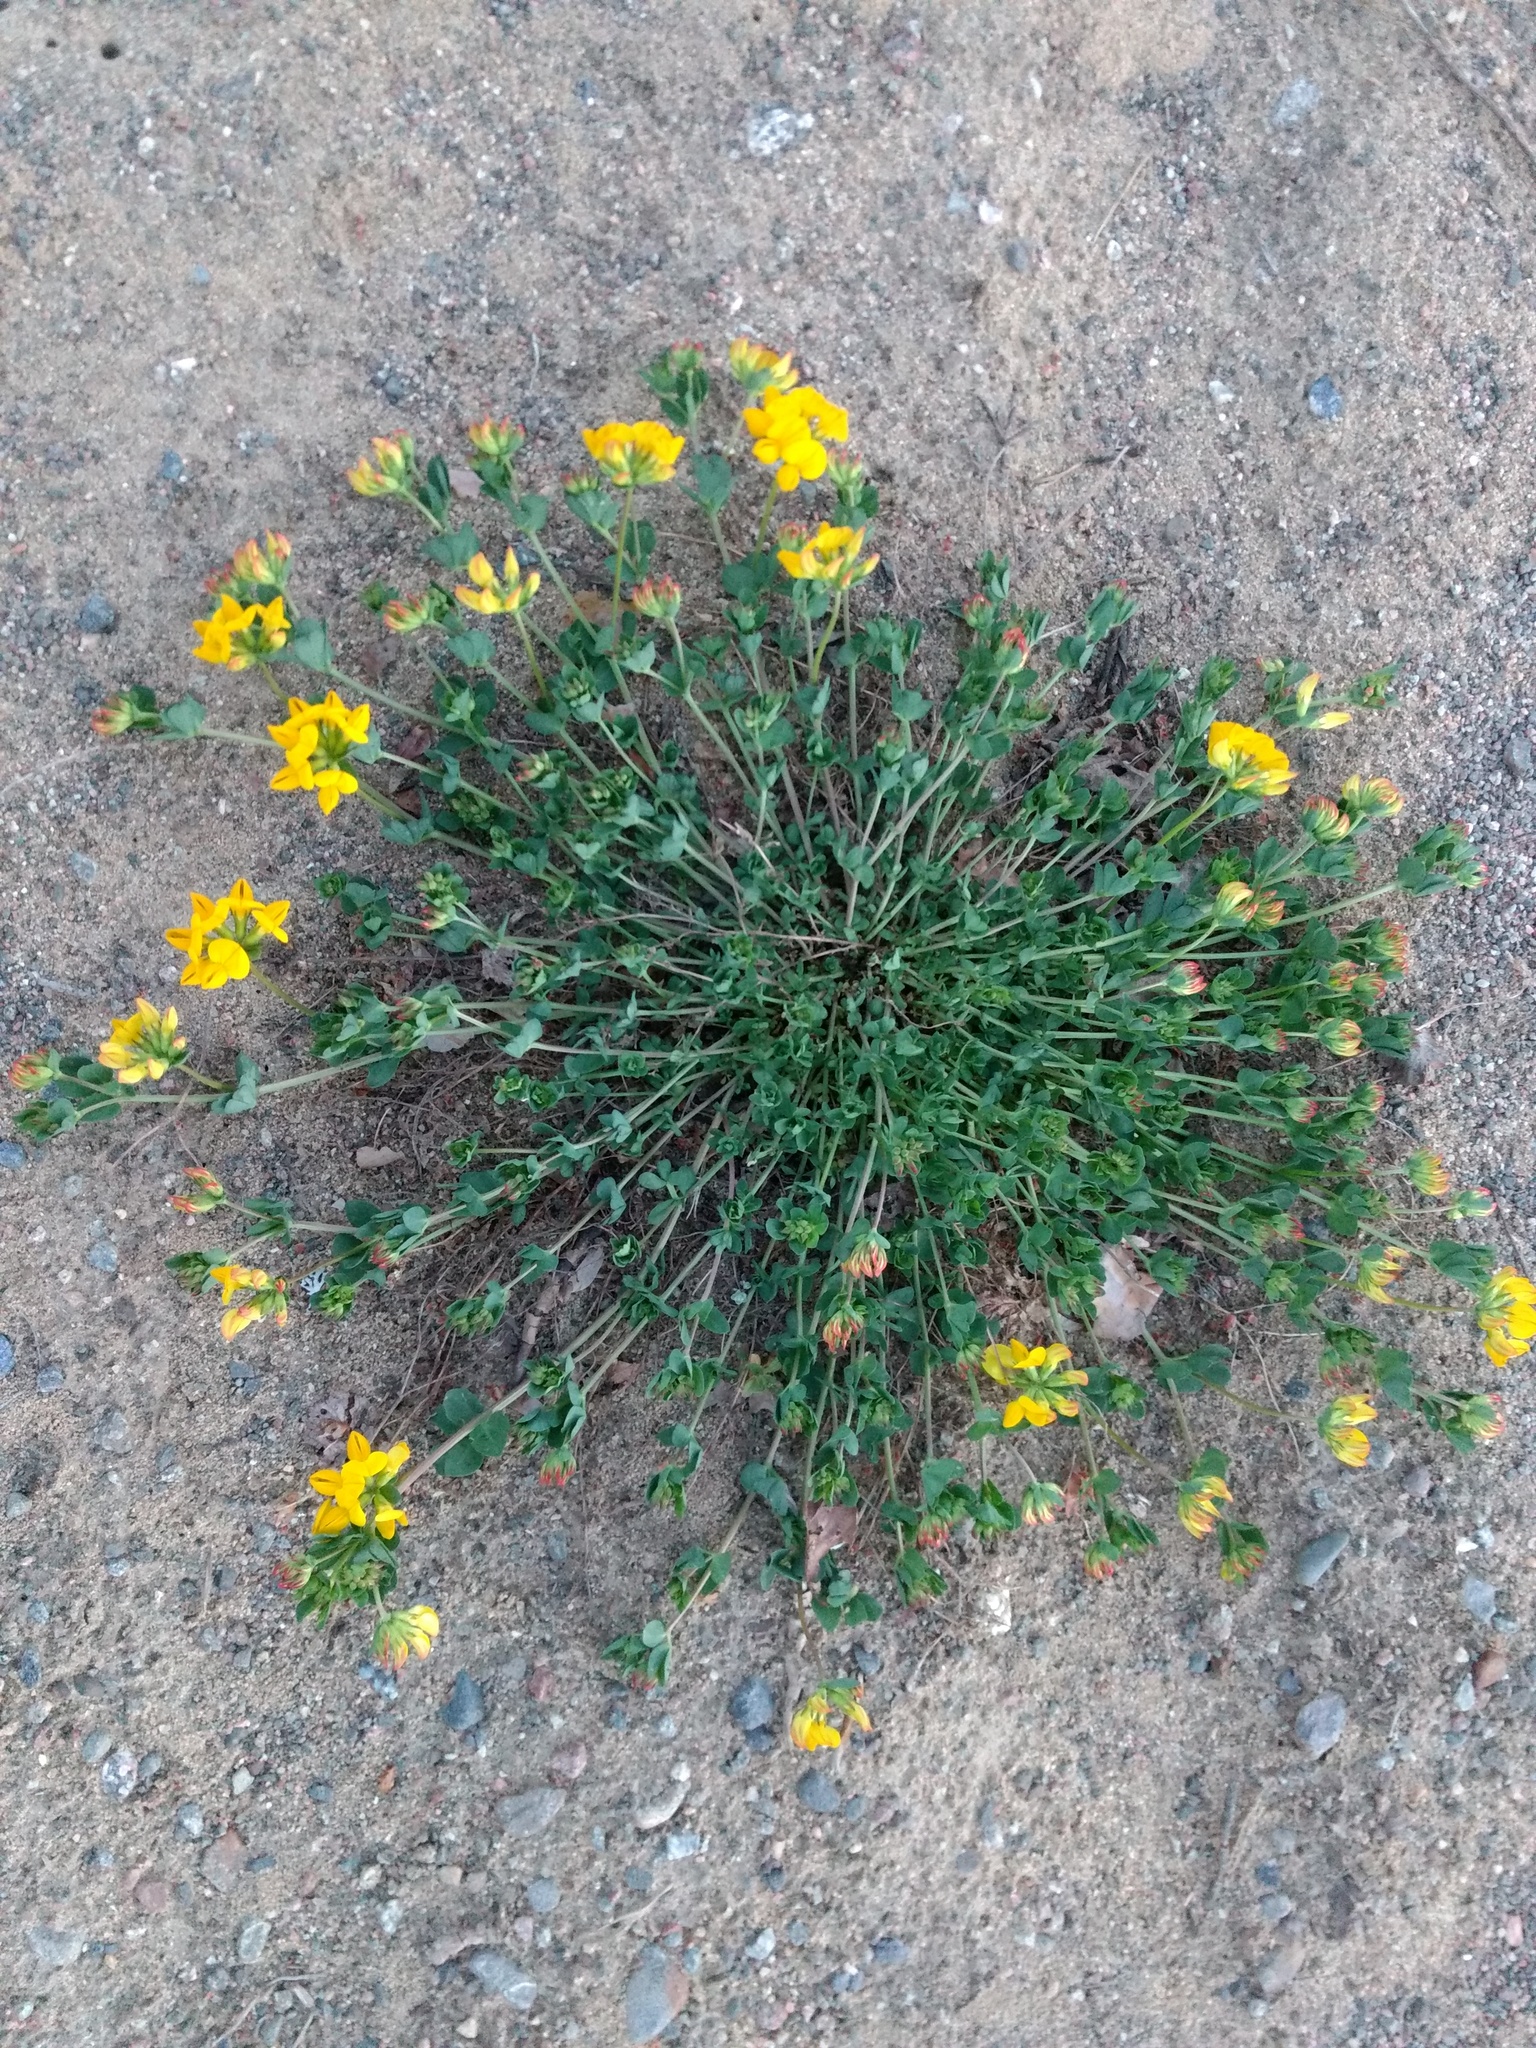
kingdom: Plantae
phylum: Tracheophyta
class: Magnoliopsida
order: Fabales
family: Fabaceae
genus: Lotus
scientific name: Lotus corniculatus
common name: Common bird's-foot-trefoil
